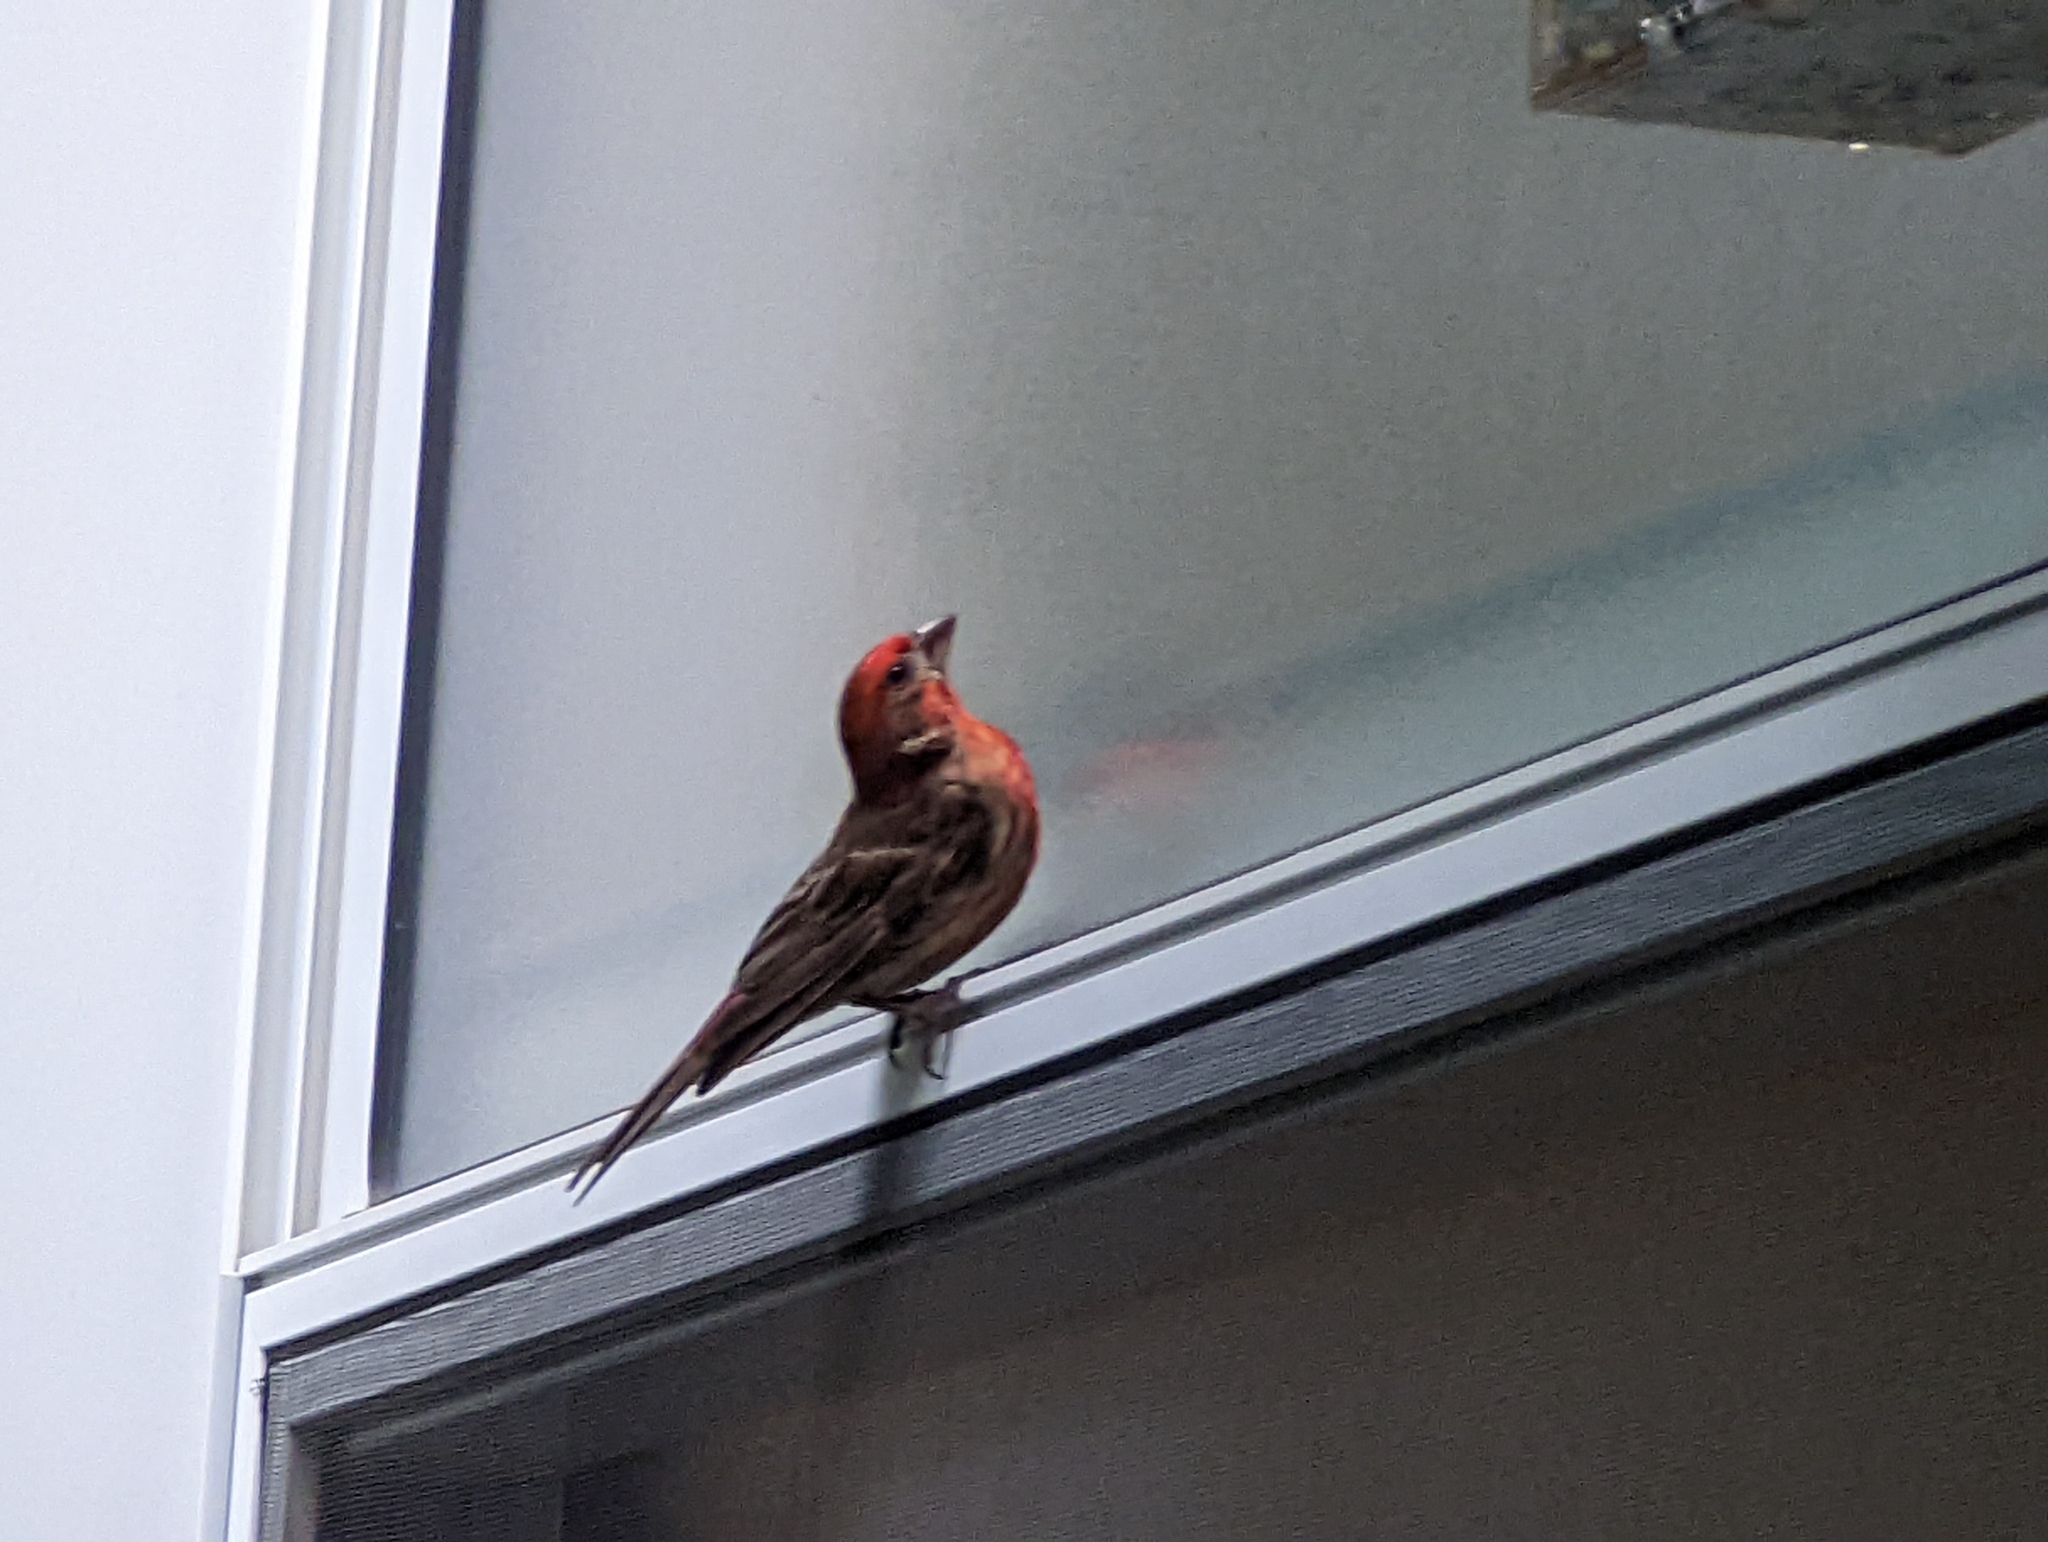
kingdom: Animalia
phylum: Chordata
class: Aves
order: Passeriformes
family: Fringillidae
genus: Haemorhous
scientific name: Haemorhous mexicanus
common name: House finch
